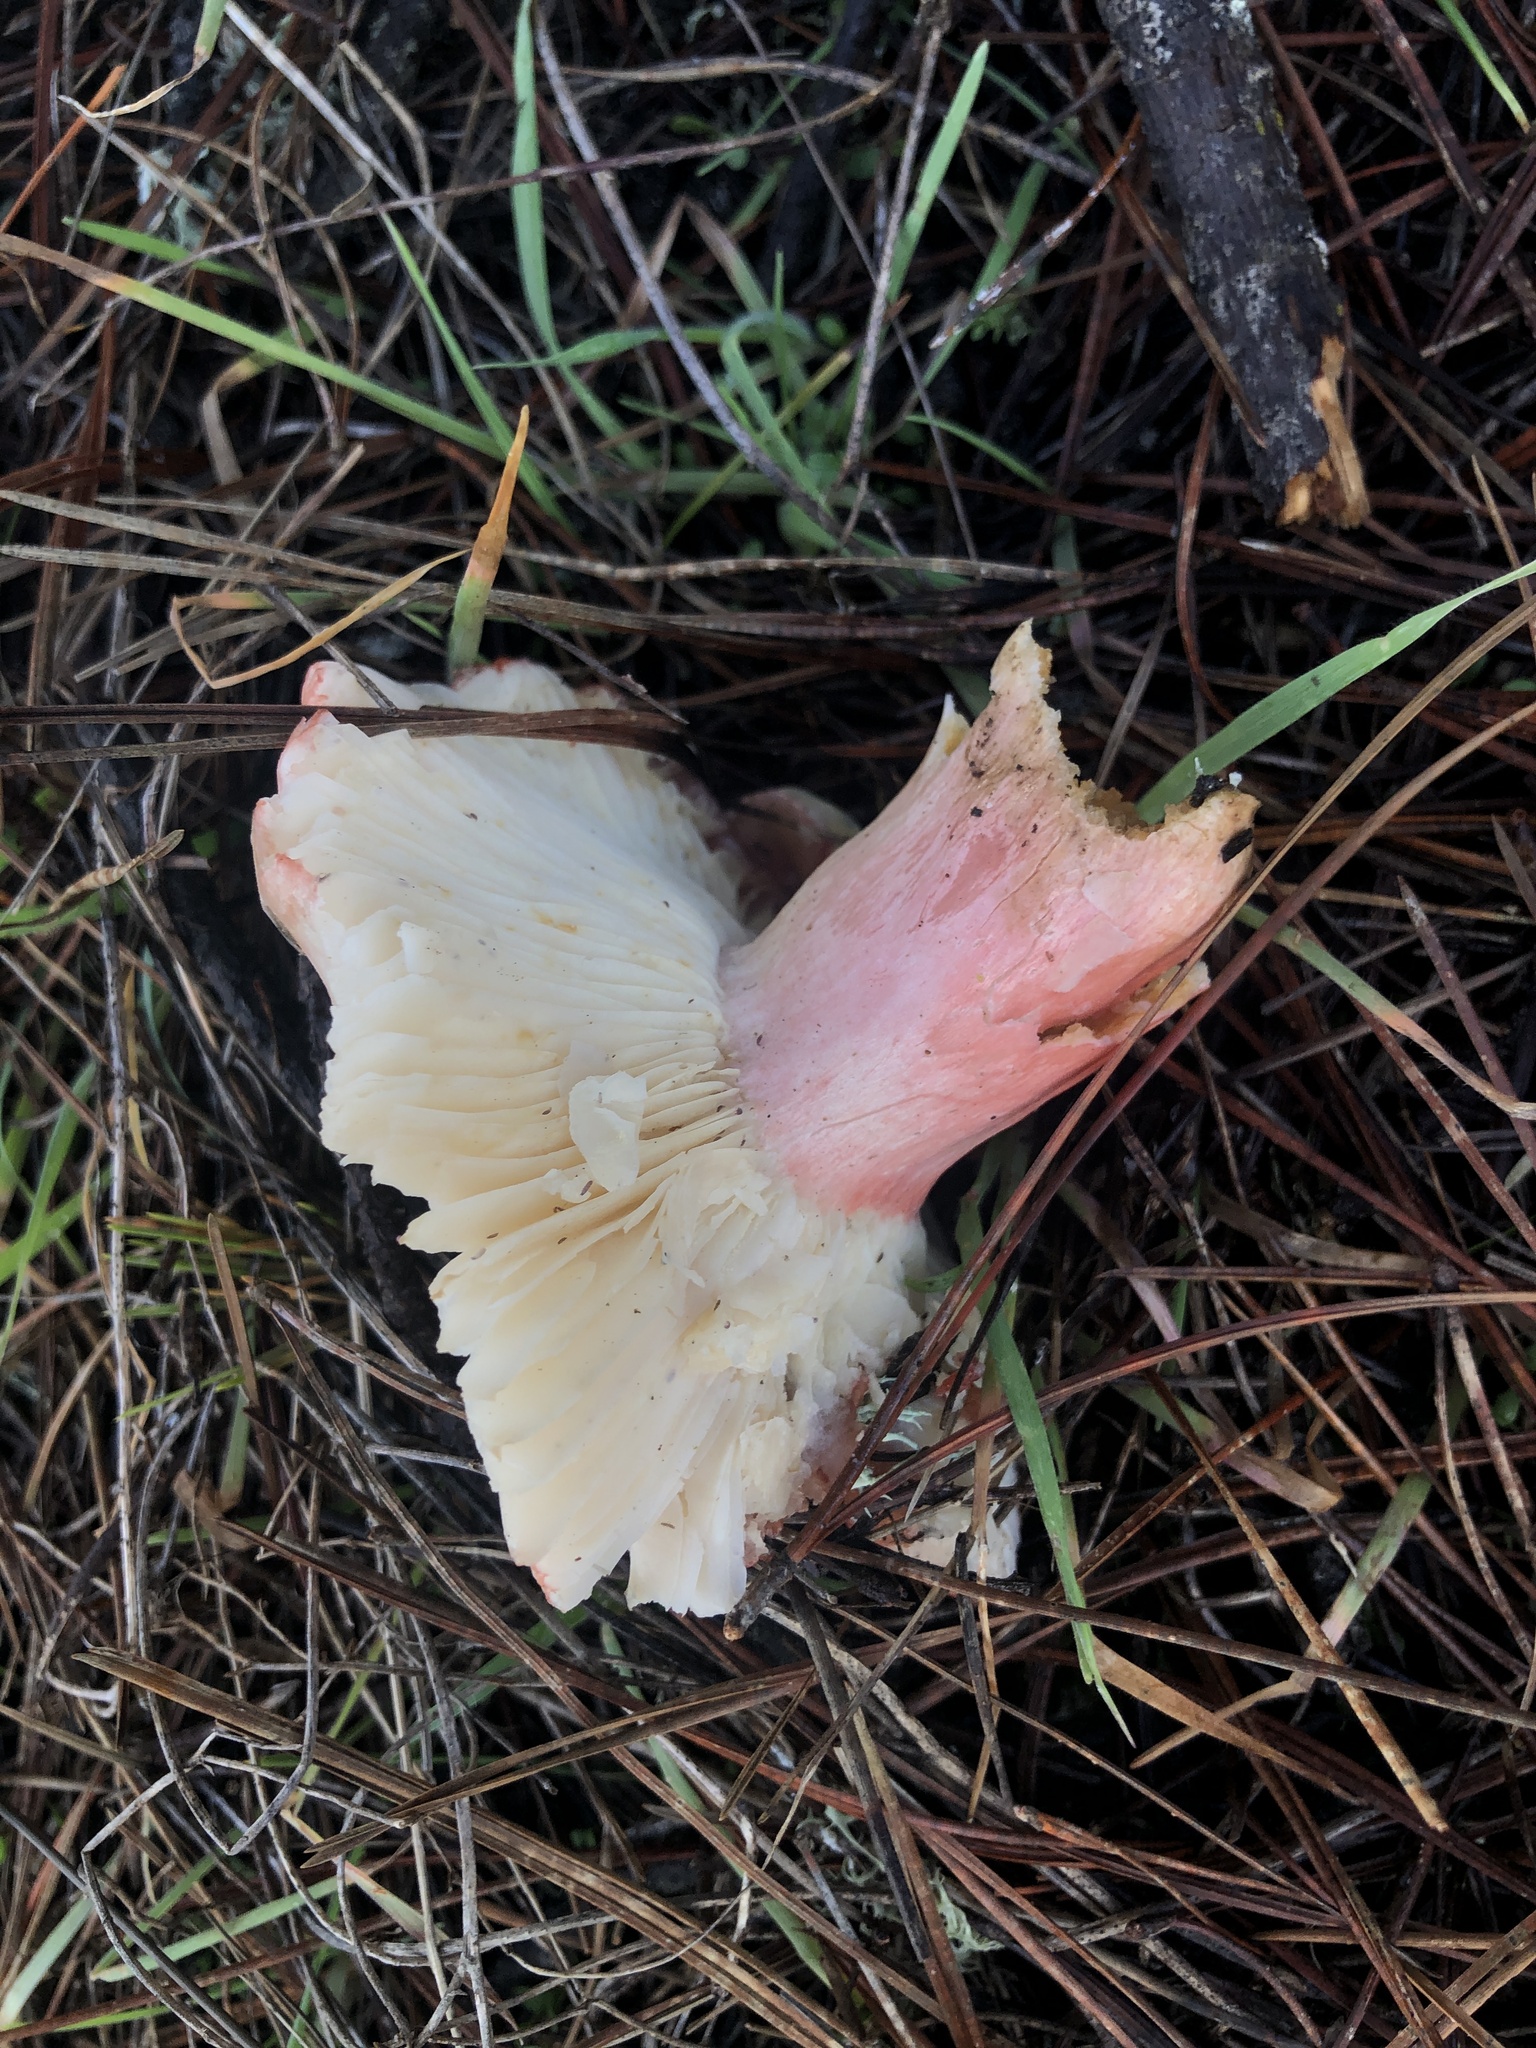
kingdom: Fungi
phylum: Basidiomycota
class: Agaricomycetes
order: Russulales
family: Russulaceae
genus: Russula
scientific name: Russula rhodocephala
